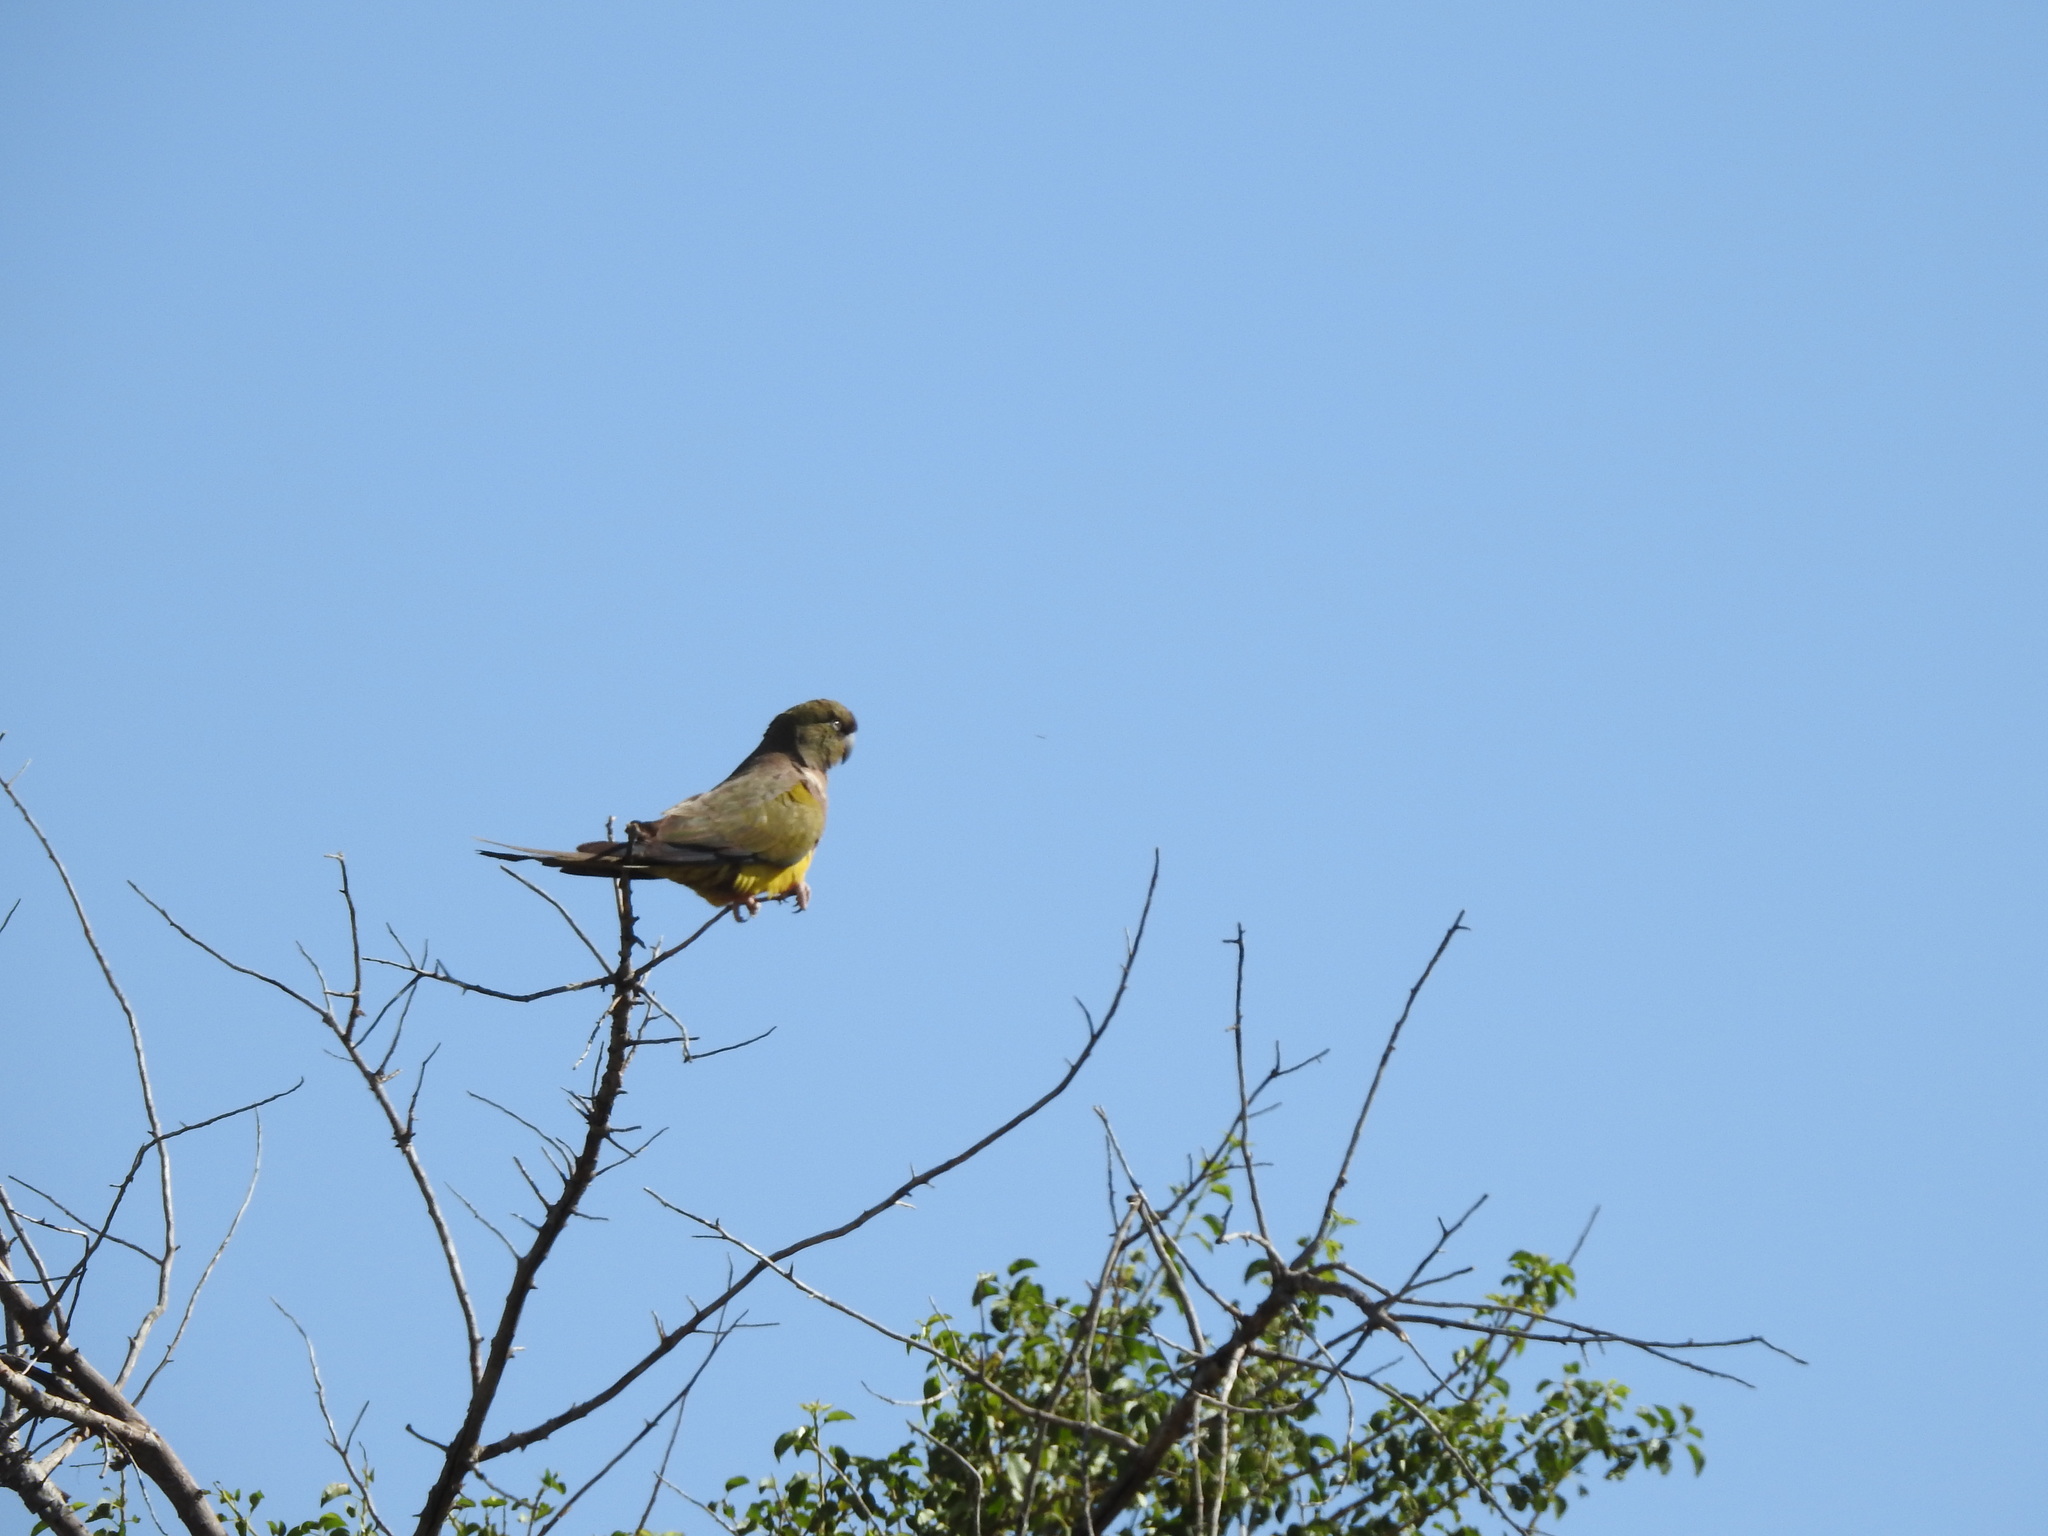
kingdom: Animalia
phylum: Chordata
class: Aves
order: Psittaciformes
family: Psittacidae
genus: Cyanoliseus
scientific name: Cyanoliseus patagonus
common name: Burrowing parrot
